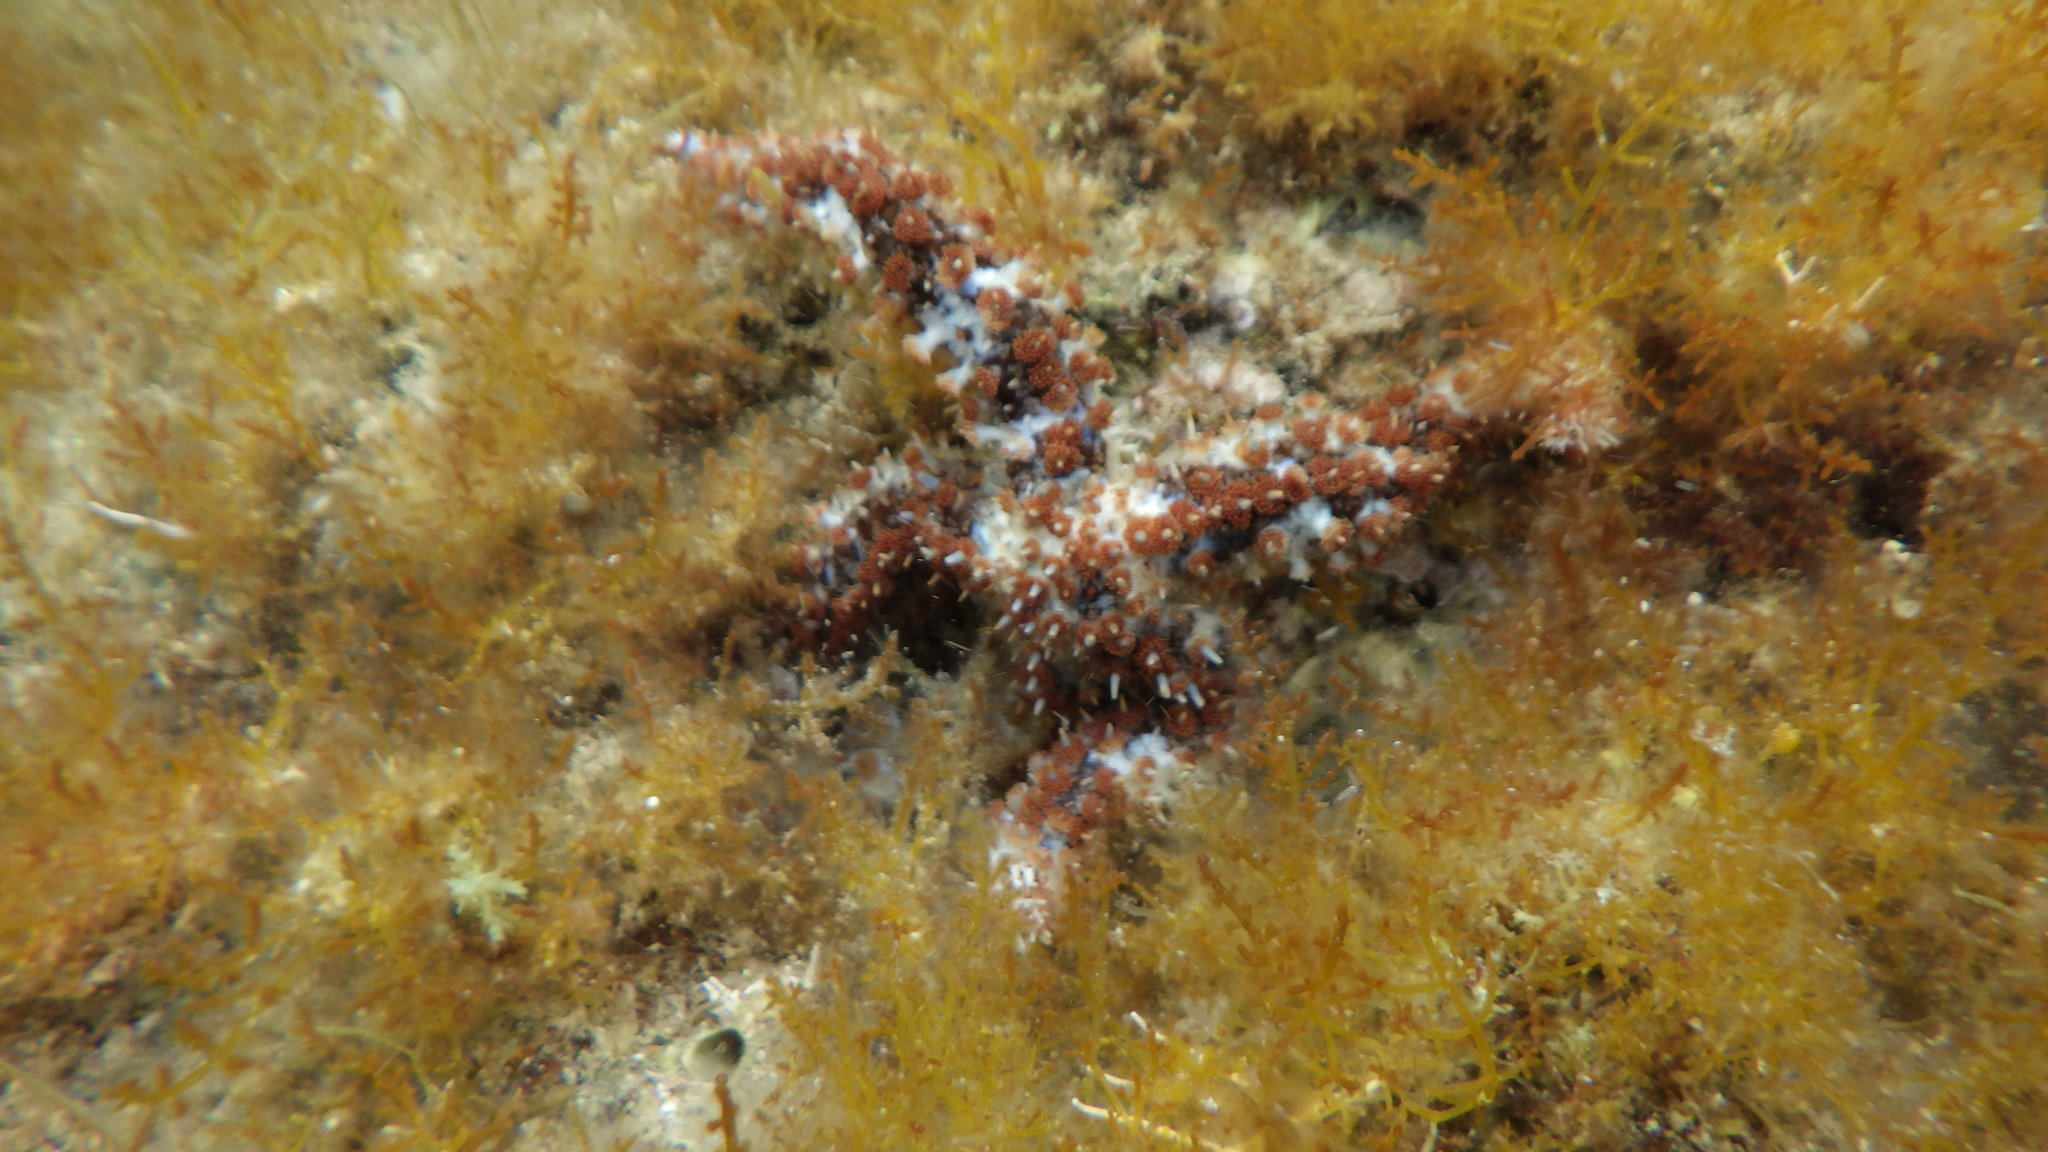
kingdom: Animalia
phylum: Echinodermata
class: Asteroidea
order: Forcipulatida
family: Asteriidae
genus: Coscinasterias
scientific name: Coscinasterias tenuispina
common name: Blue spiny starfish
